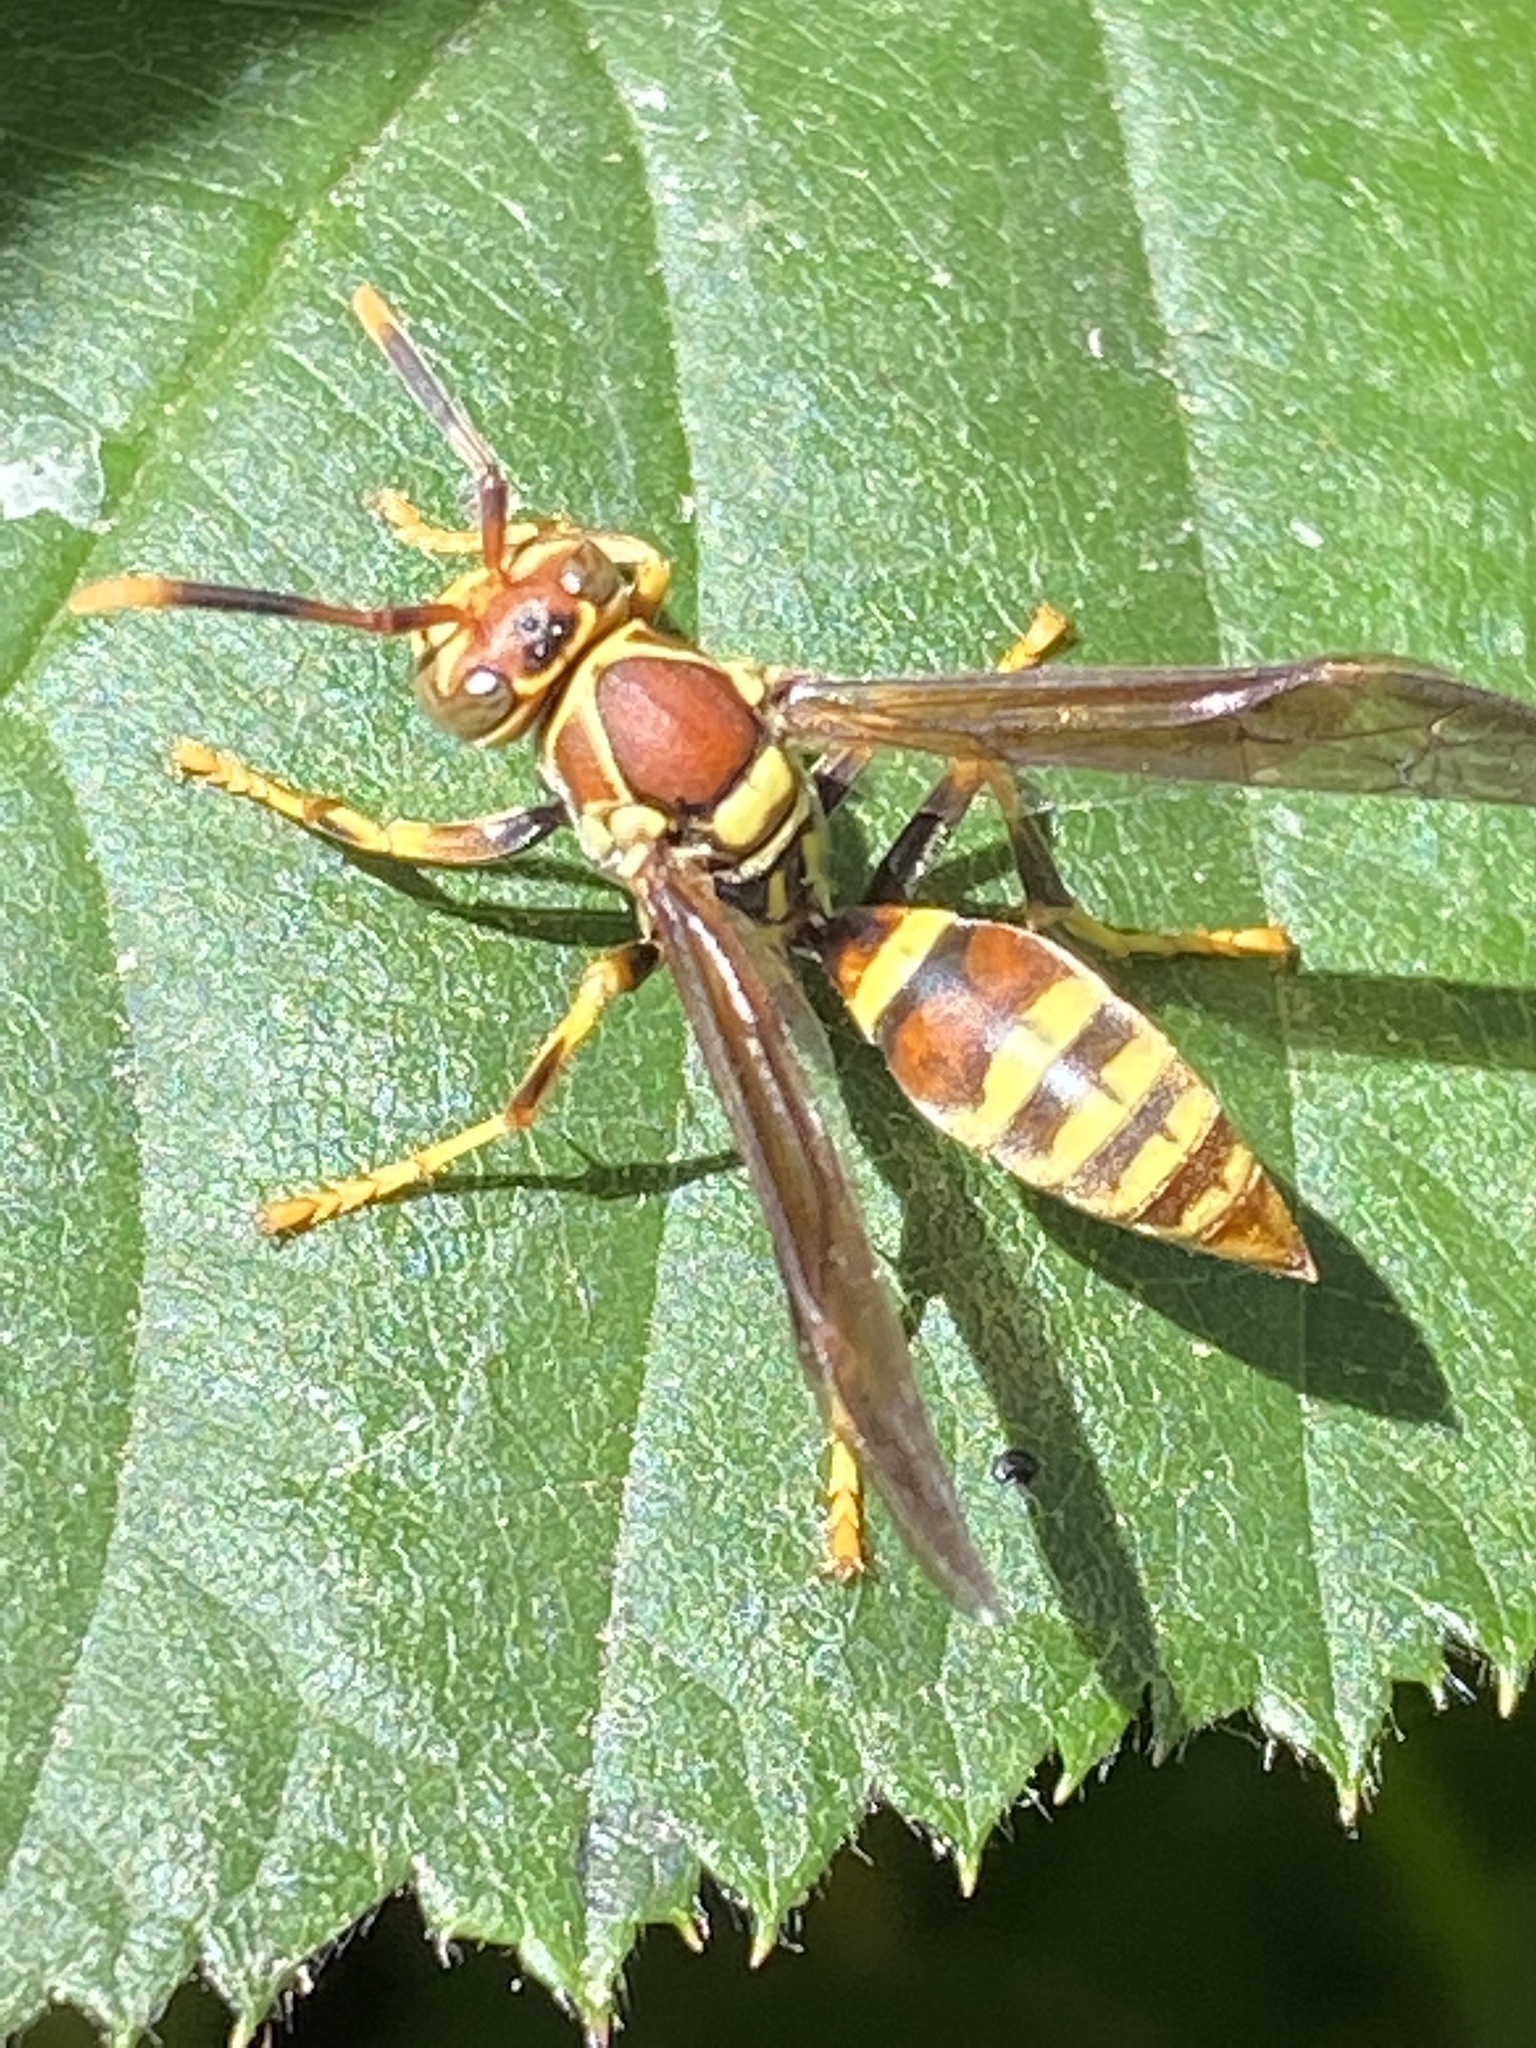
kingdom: Animalia
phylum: Arthropoda
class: Insecta
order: Hymenoptera
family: Eumenidae
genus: Polistes
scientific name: Polistes exclamans
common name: Paper wasp
